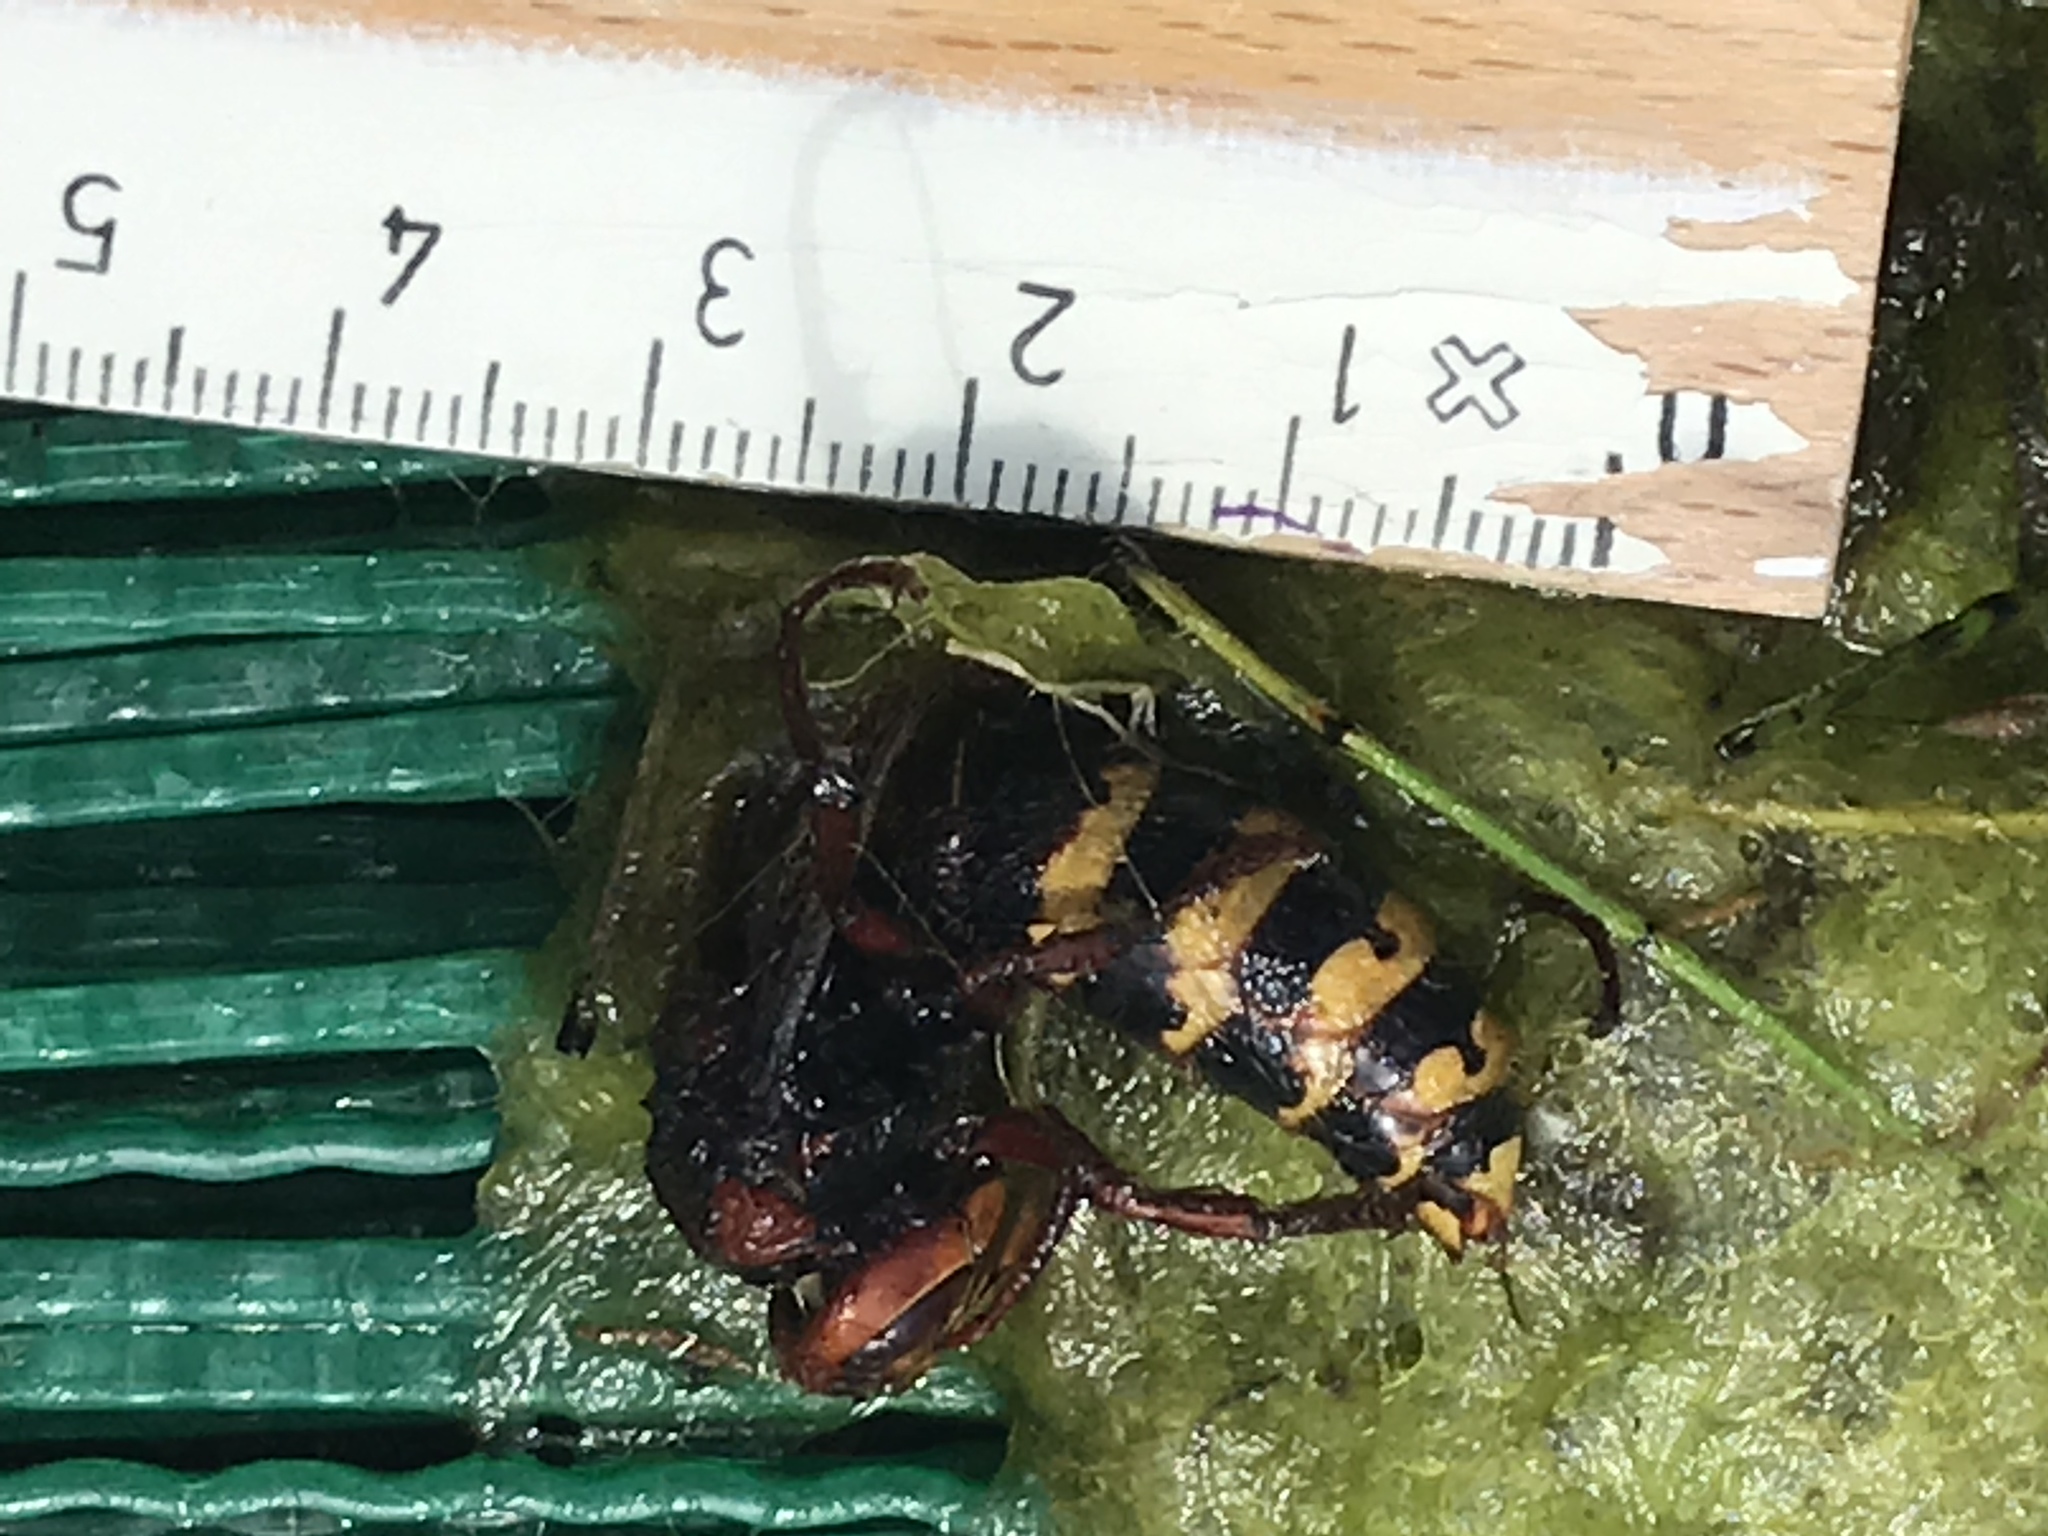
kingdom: Animalia
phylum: Arthropoda
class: Insecta
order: Hymenoptera
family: Vespidae
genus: Vespa
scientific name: Vespa crabro
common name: Hornet
